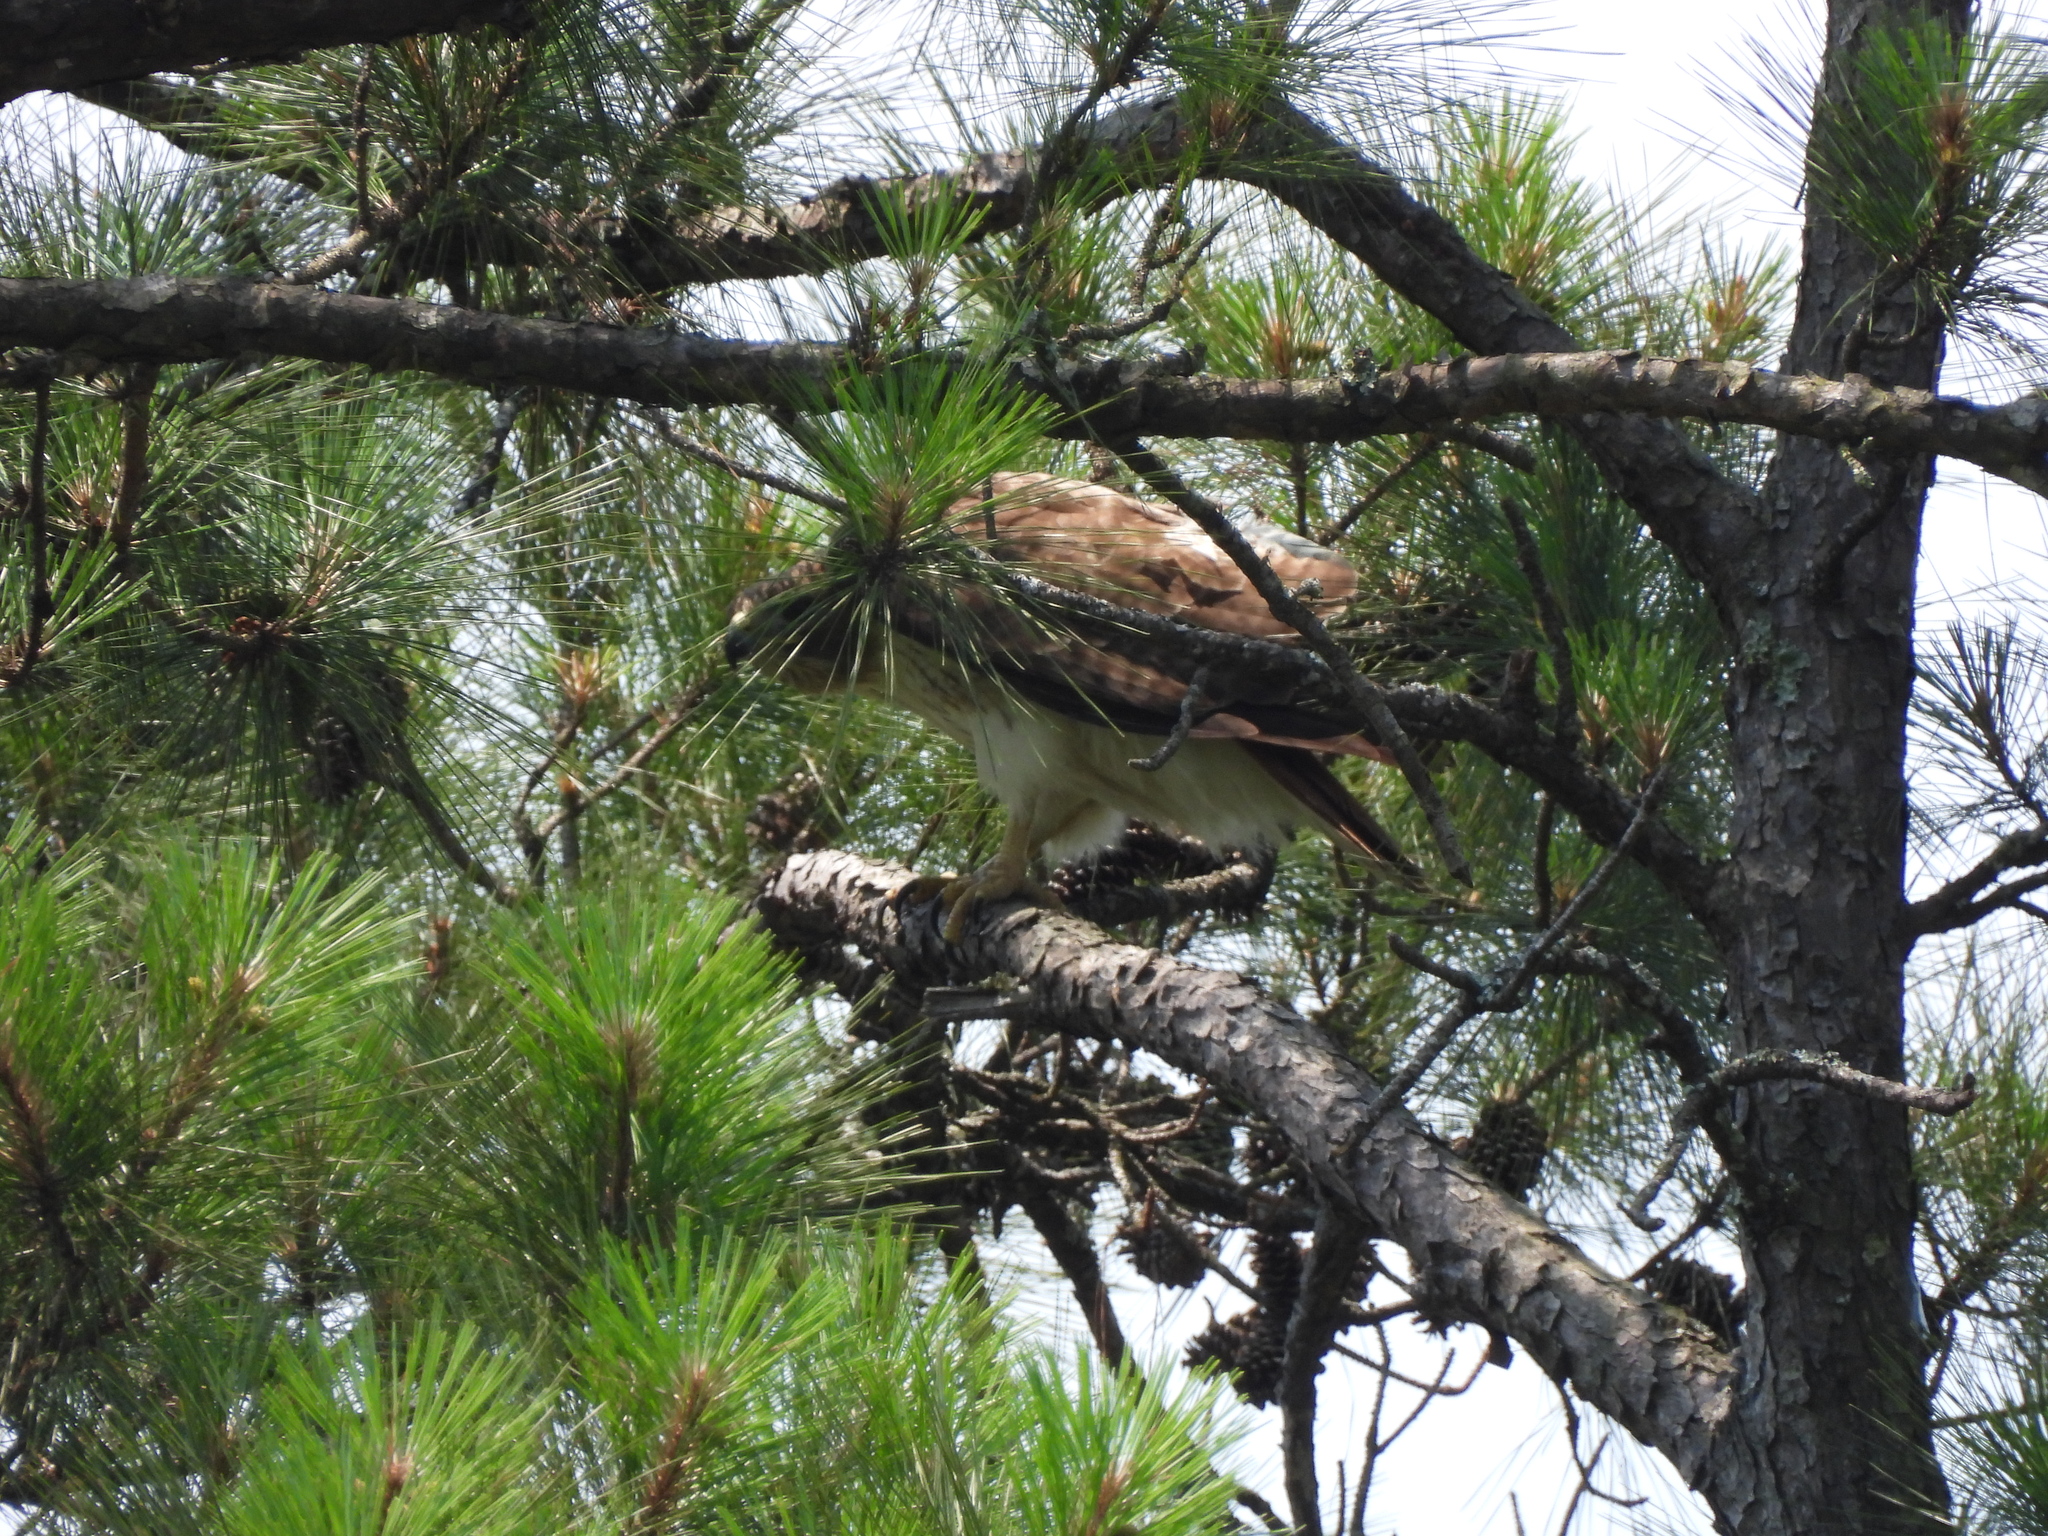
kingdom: Animalia
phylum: Chordata
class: Aves
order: Accipitriformes
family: Accipitridae
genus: Buteo
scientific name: Buteo jamaicensis
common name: Red-tailed hawk
